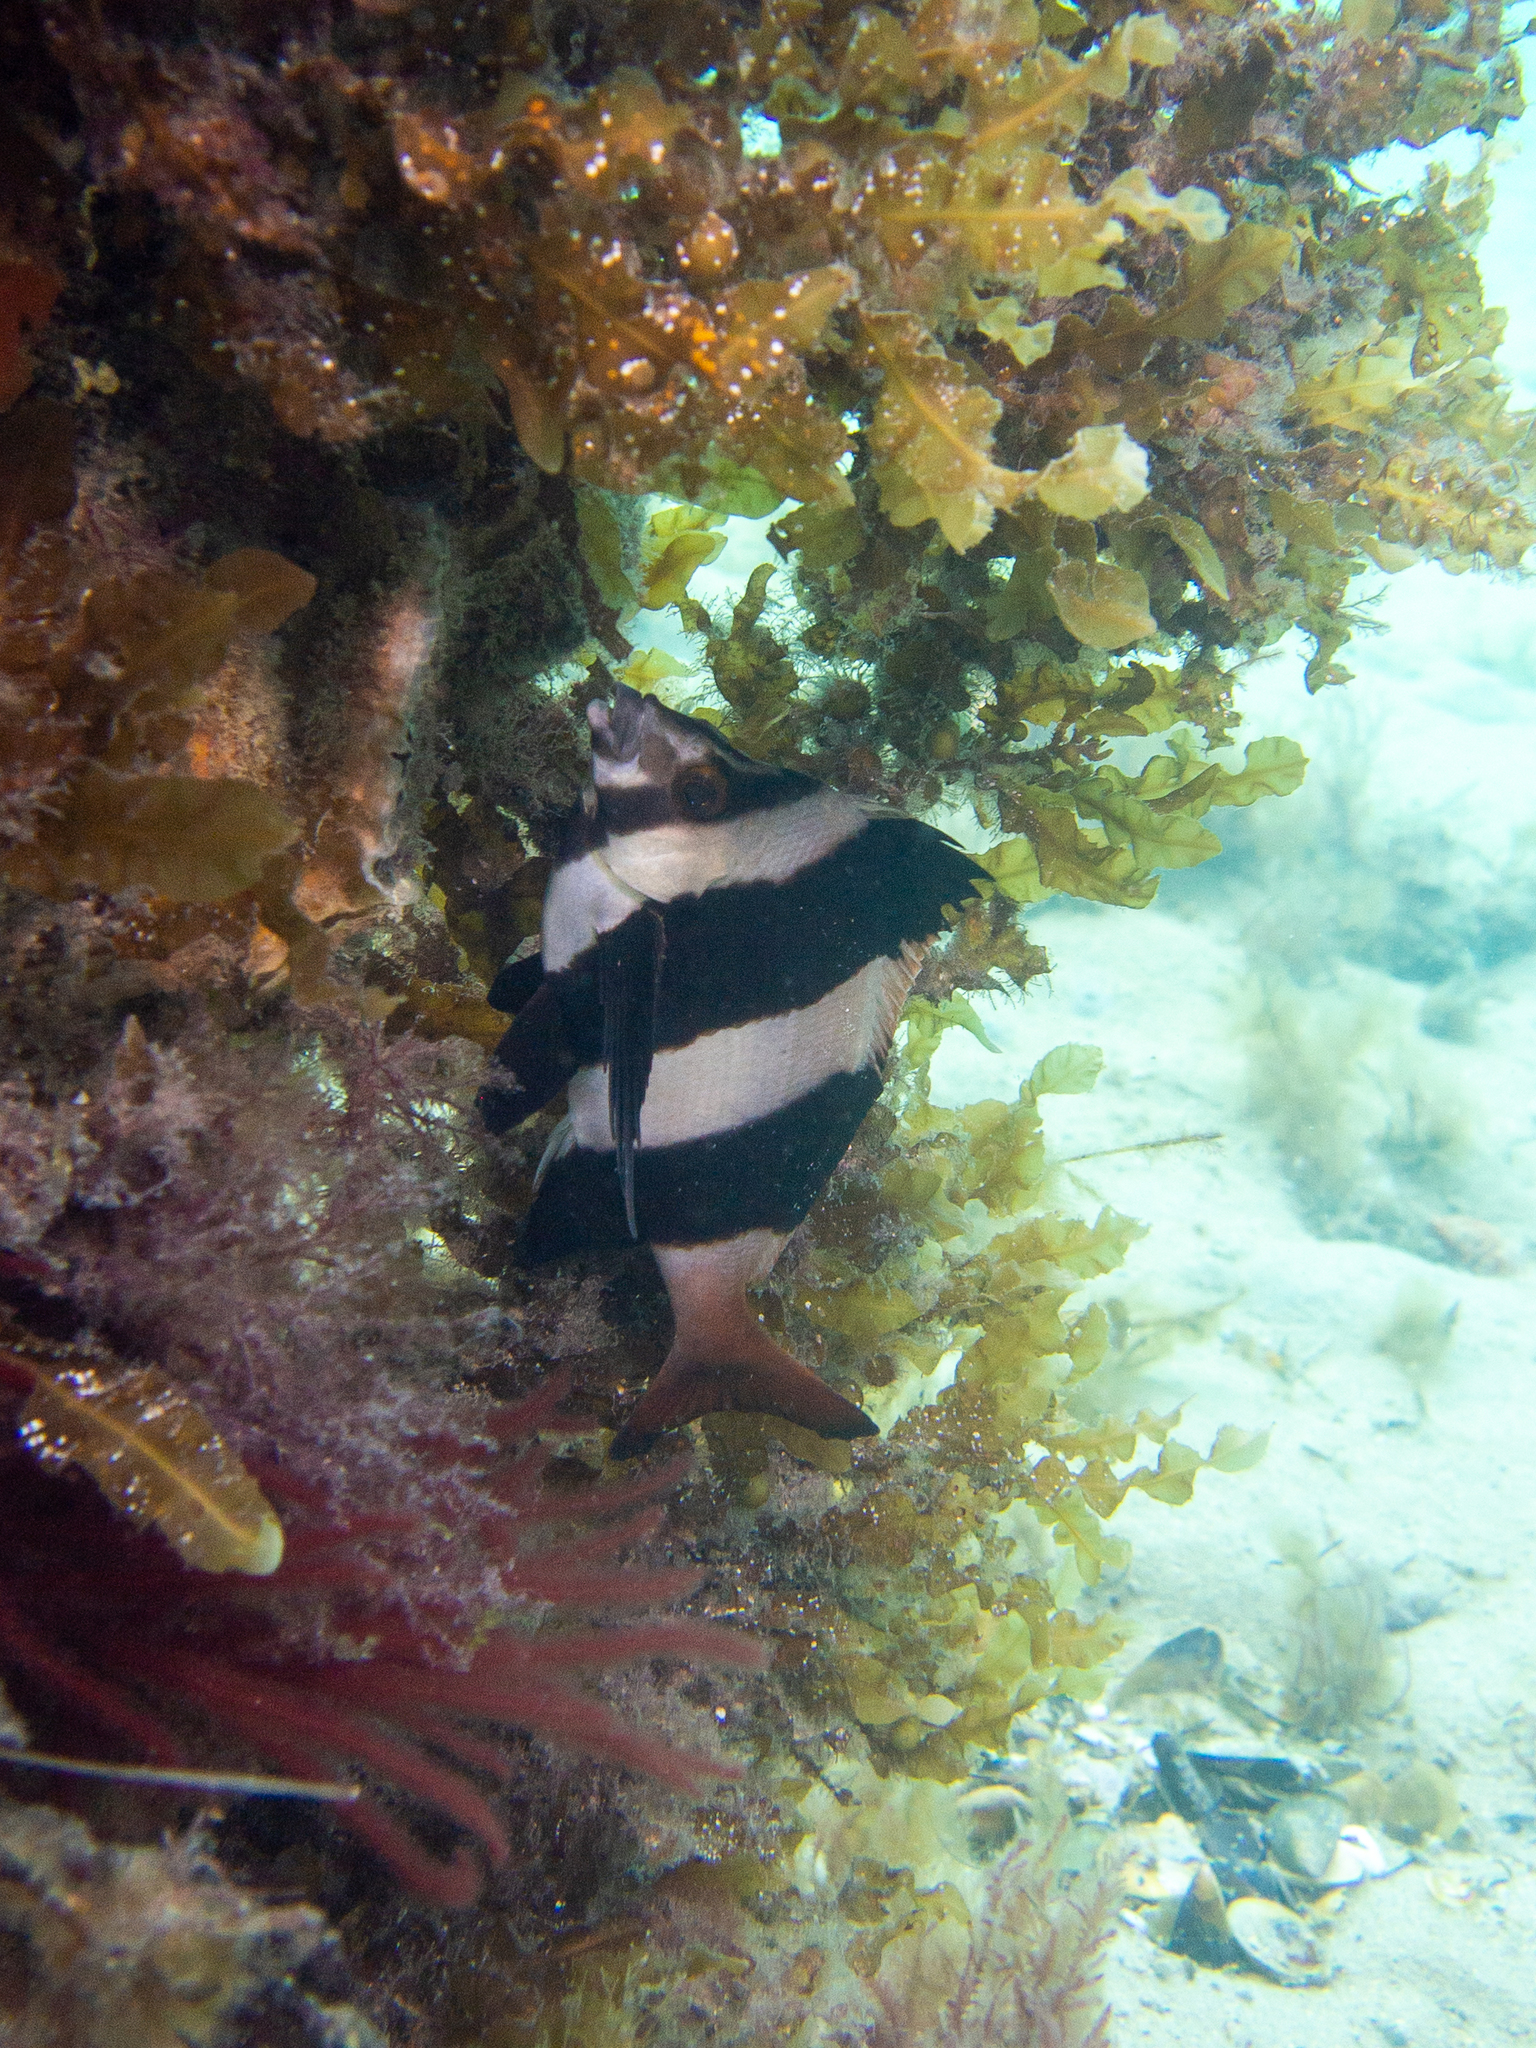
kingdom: Animalia
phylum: Chordata
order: Perciformes
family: Latridae
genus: Pseudogoniistius
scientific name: Pseudogoniistius nigripes
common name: Black-striped morwong
